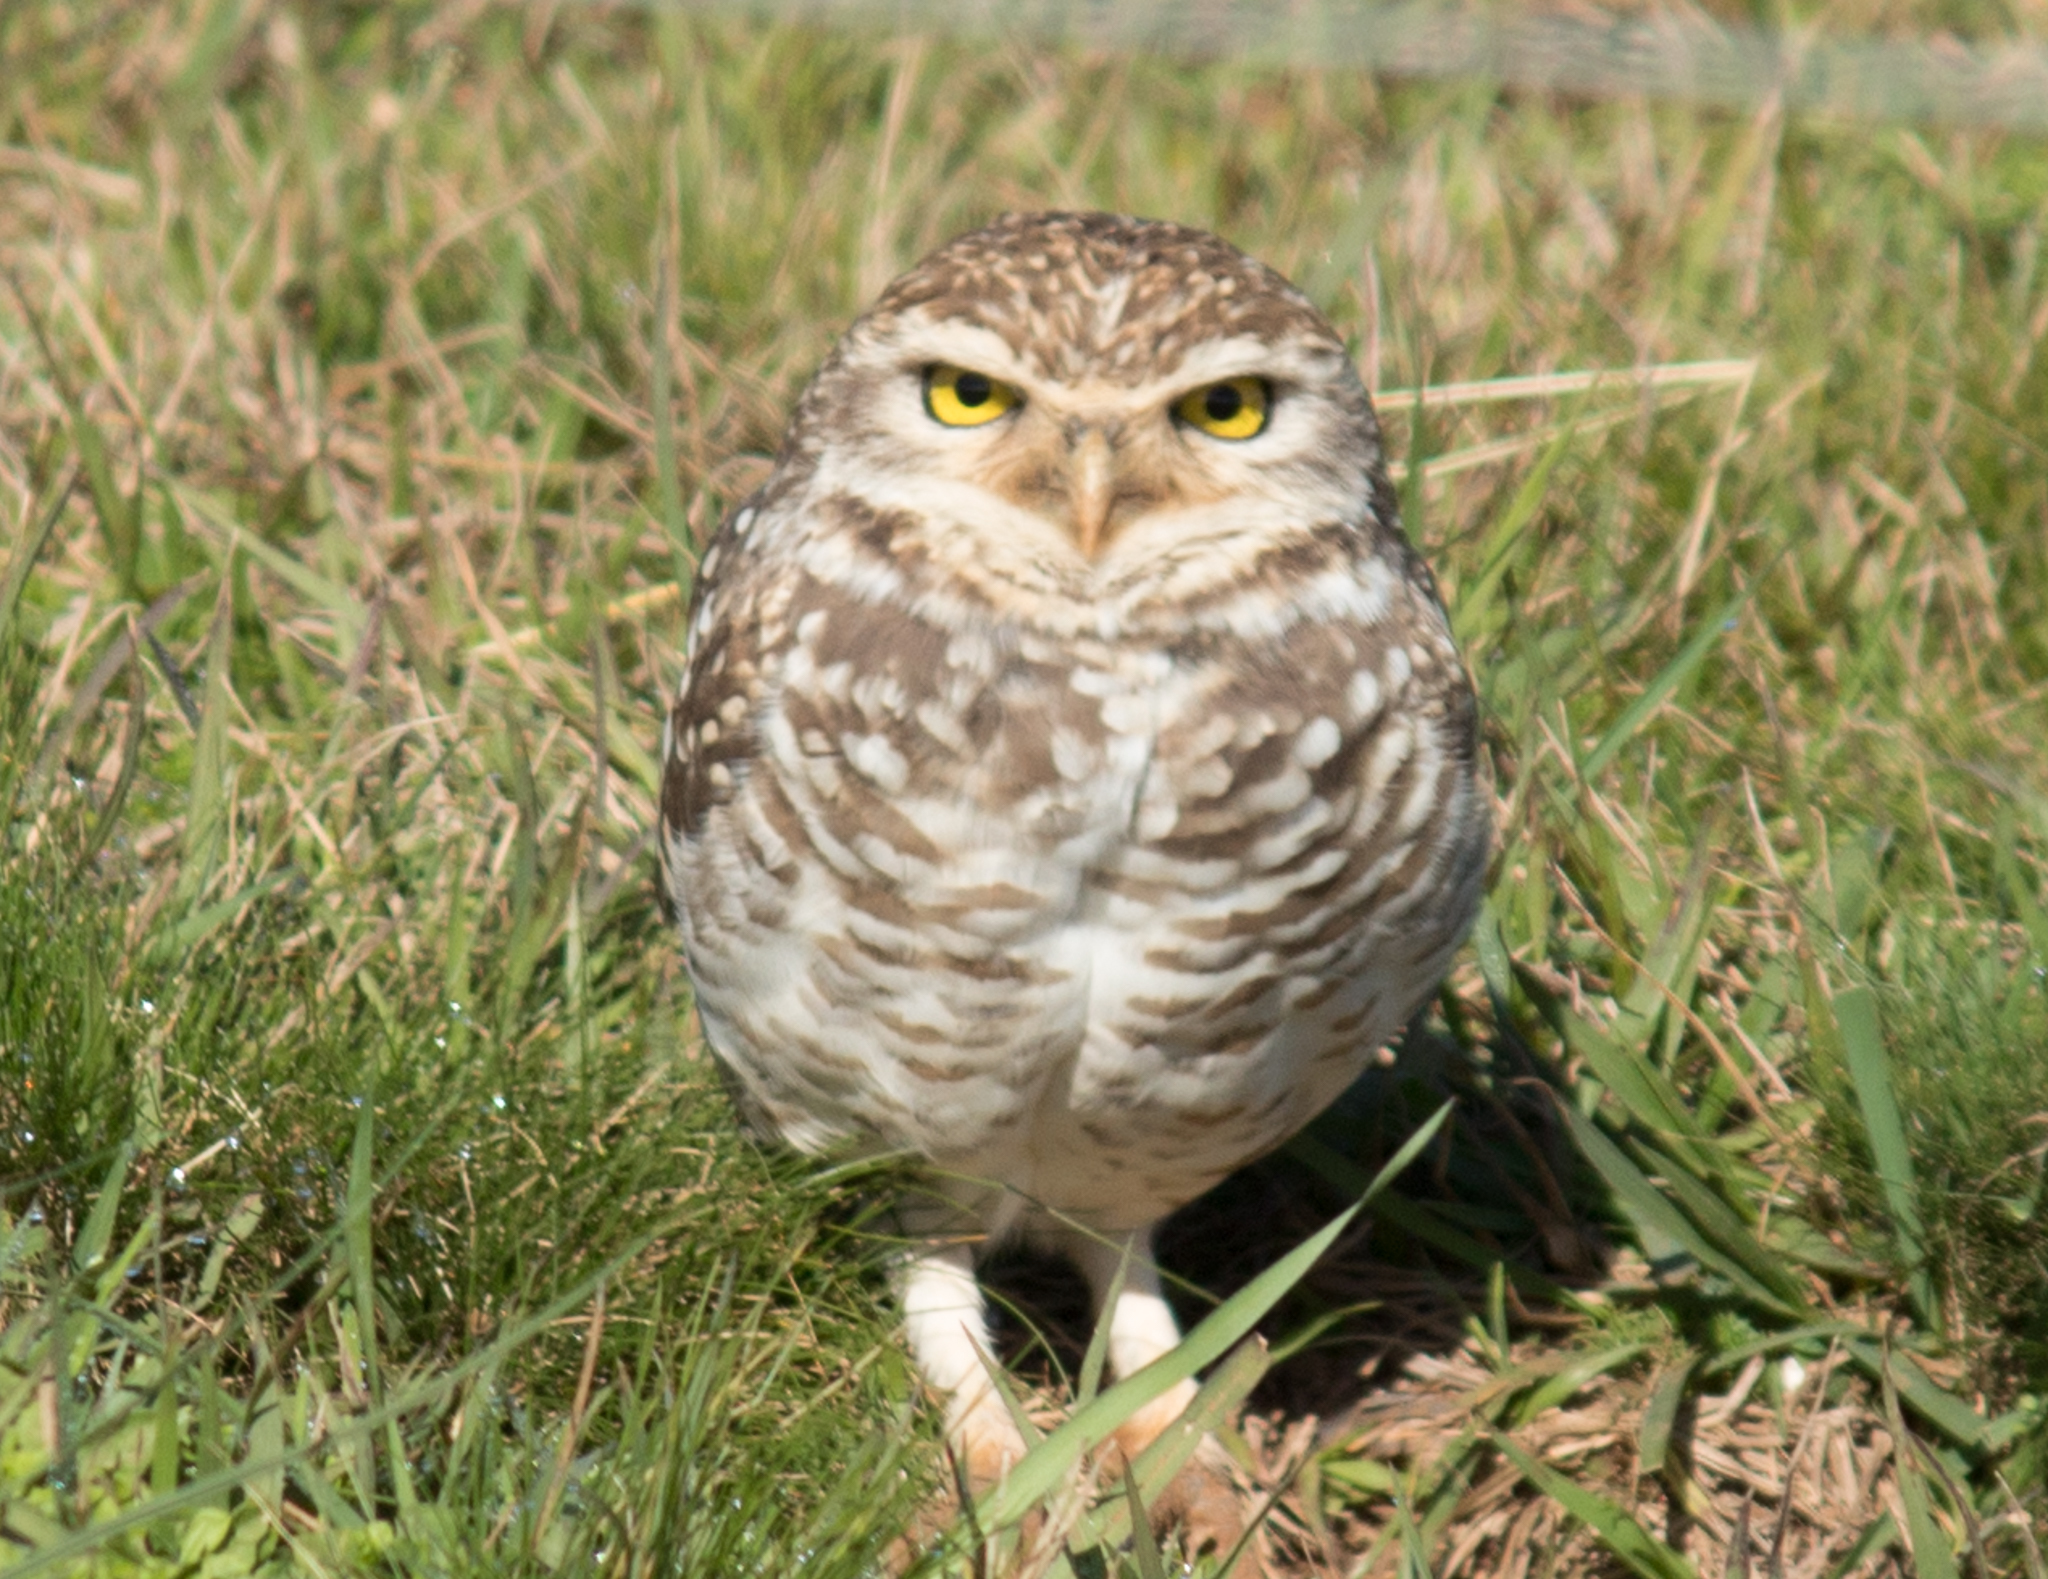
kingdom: Animalia
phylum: Chordata
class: Aves
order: Strigiformes
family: Strigidae
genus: Athene
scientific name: Athene cunicularia
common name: Burrowing owl
